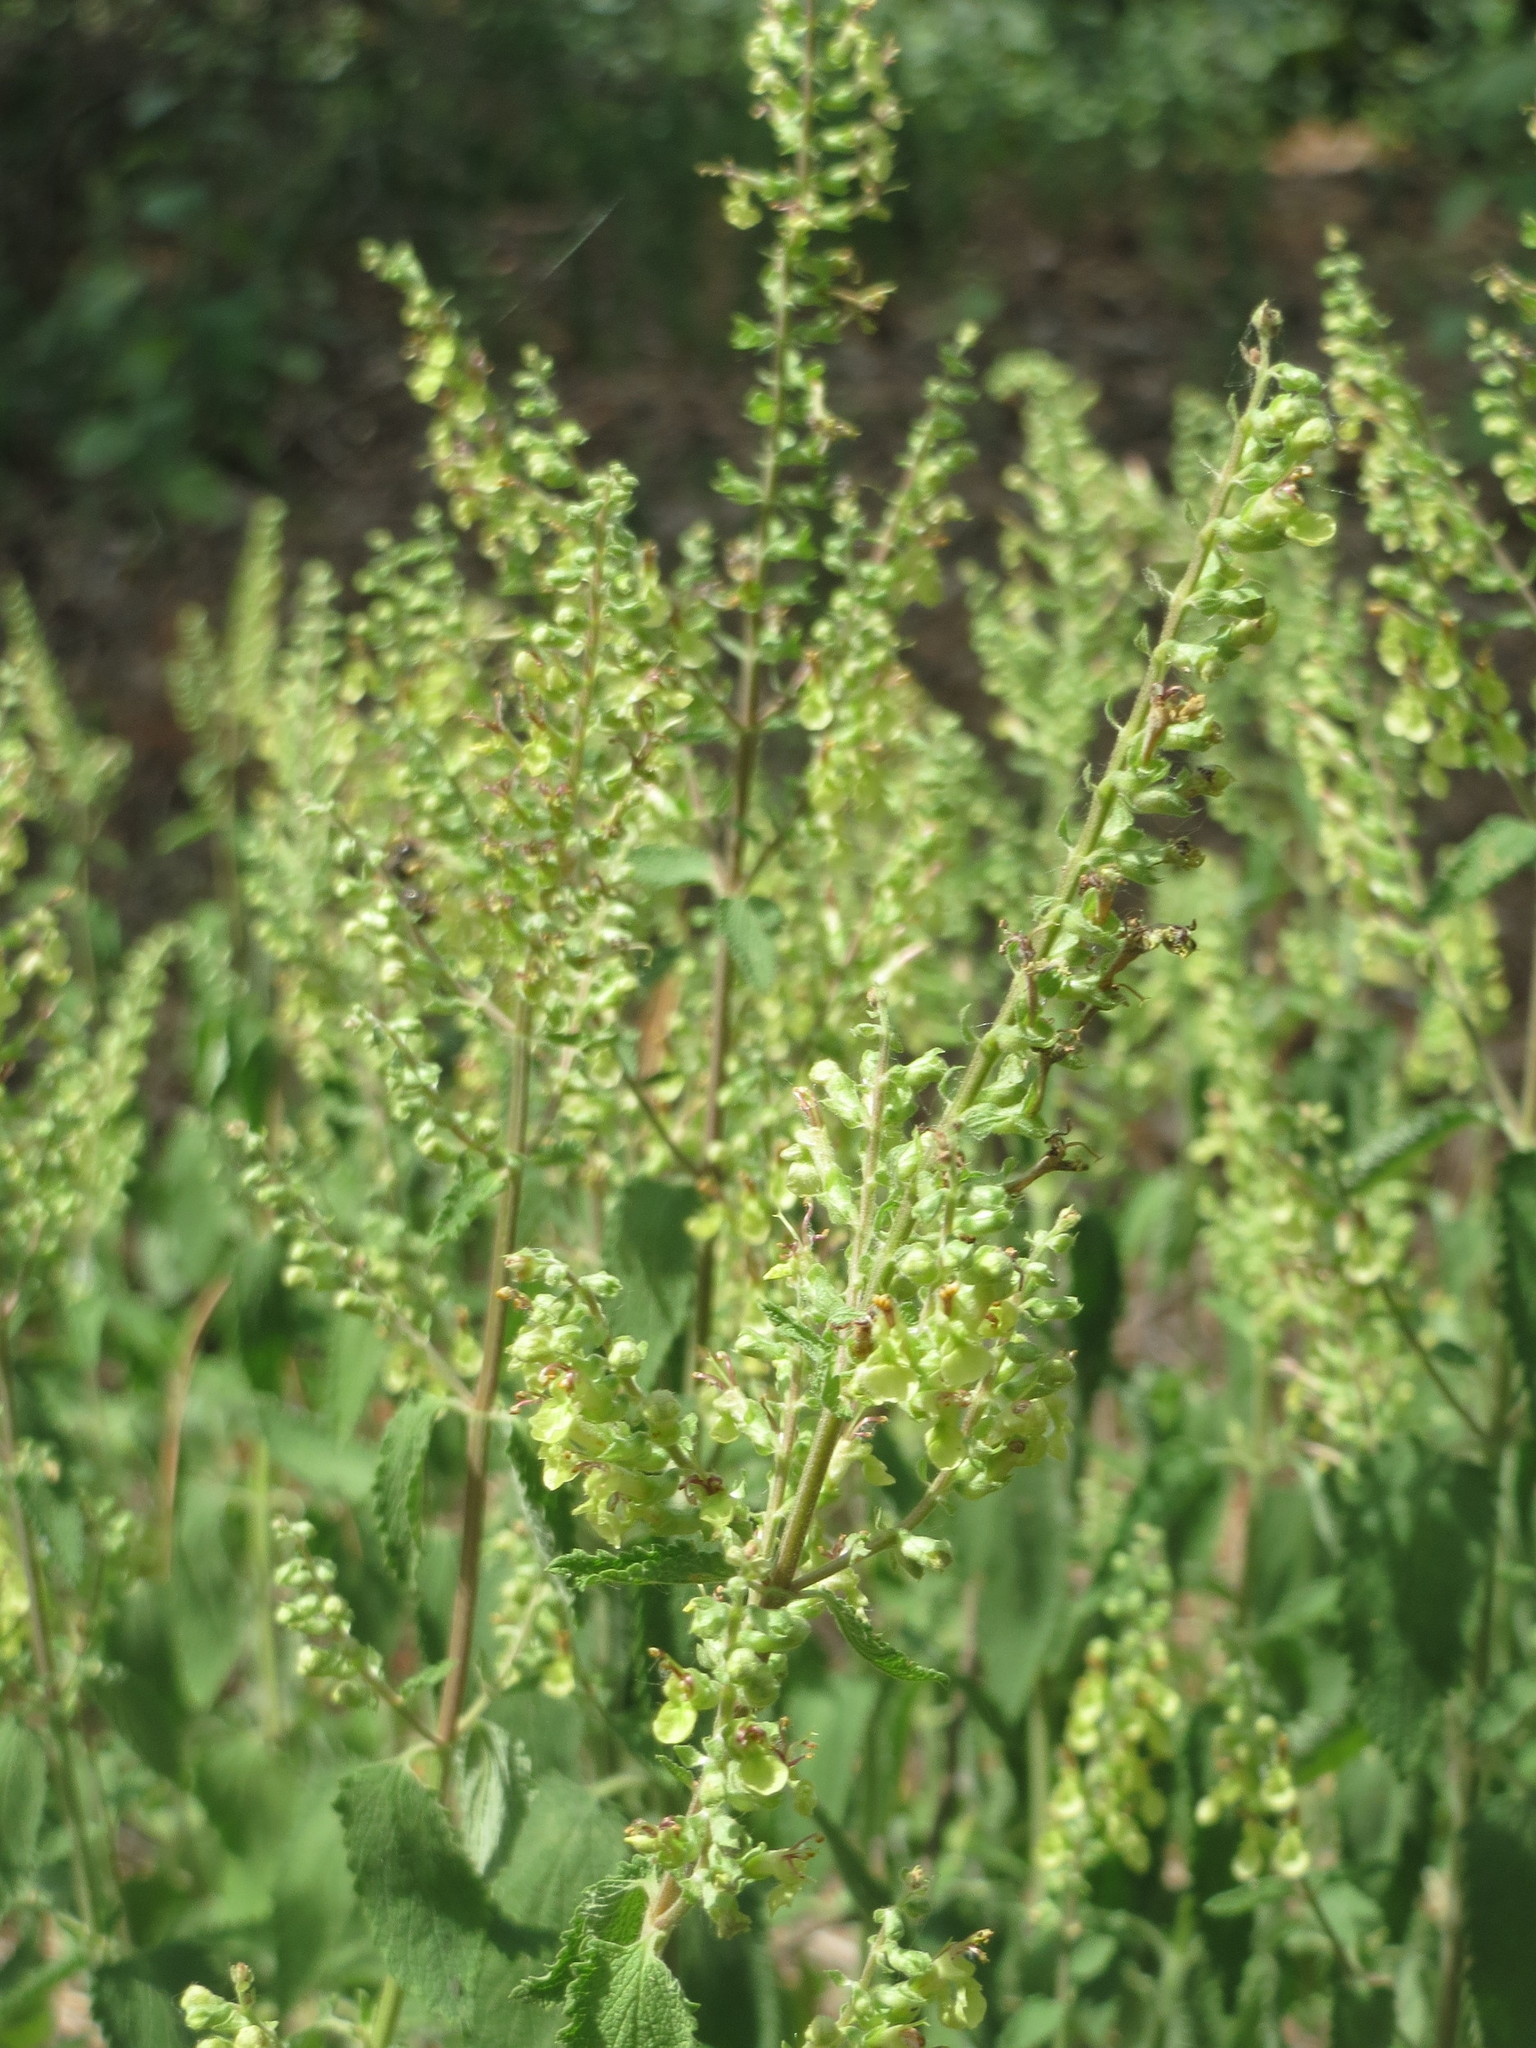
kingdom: Plantae
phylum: Tracheophyta
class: Magnoliopsida
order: Lamiales
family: Lamiaceae
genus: Teucrium
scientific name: Teucrium scorodonia
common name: Woodland germander
